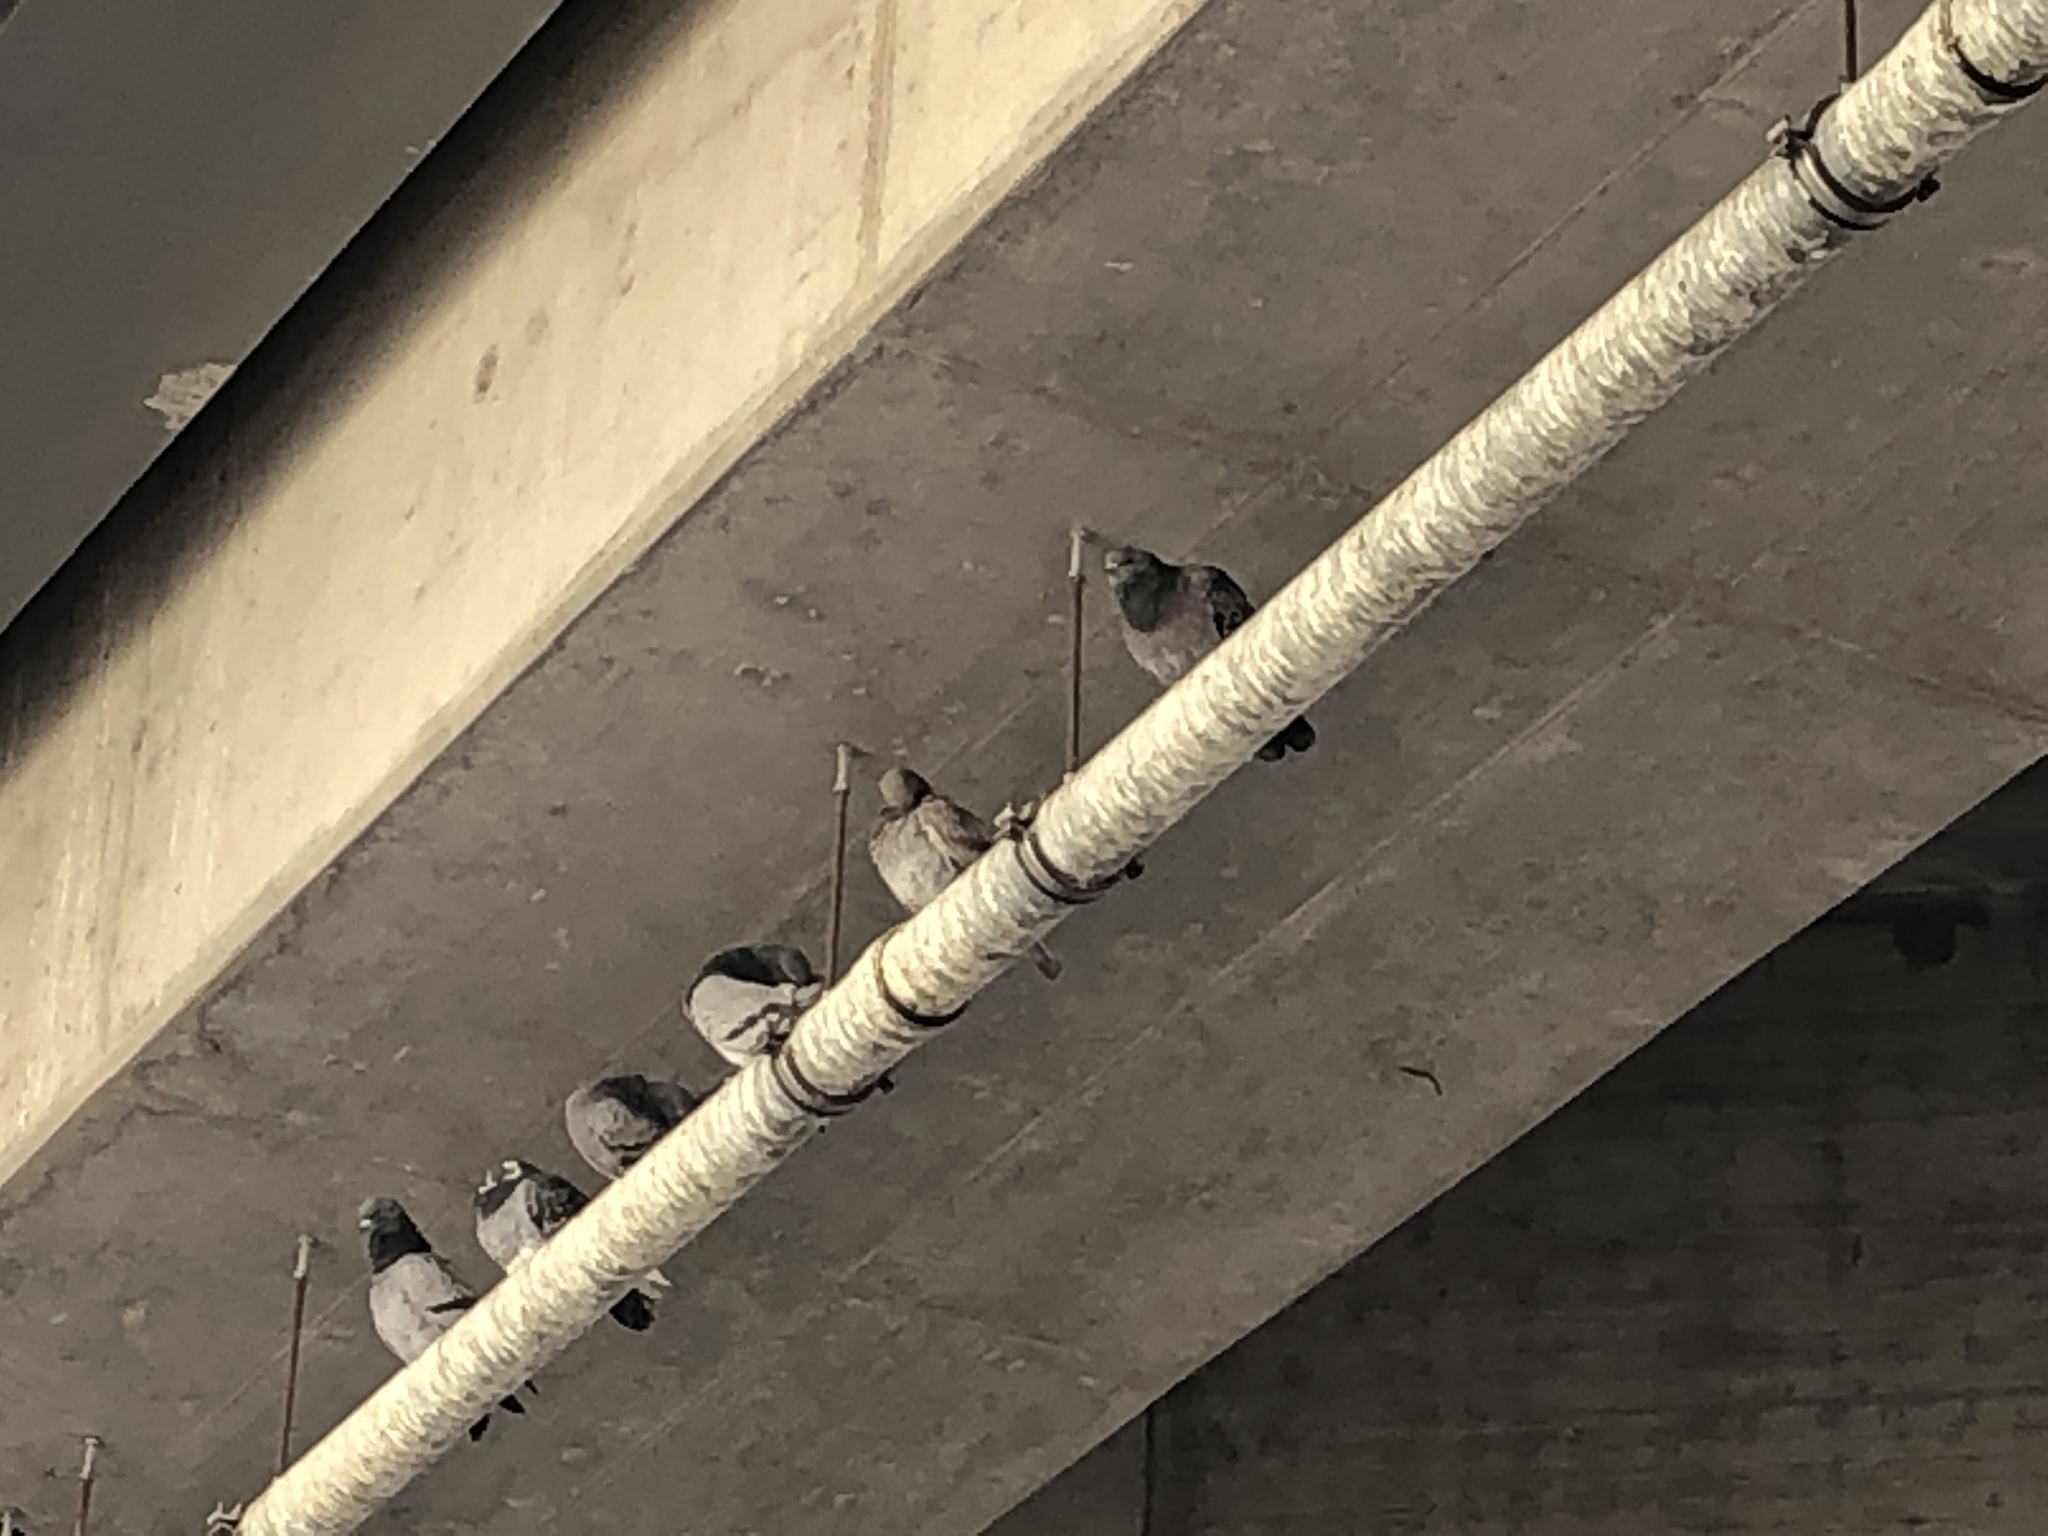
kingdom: Animalia
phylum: Chordata
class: Aves
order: Columbiformes
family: Columbidae
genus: Columba
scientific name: Columba livia
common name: Rock pigeon
